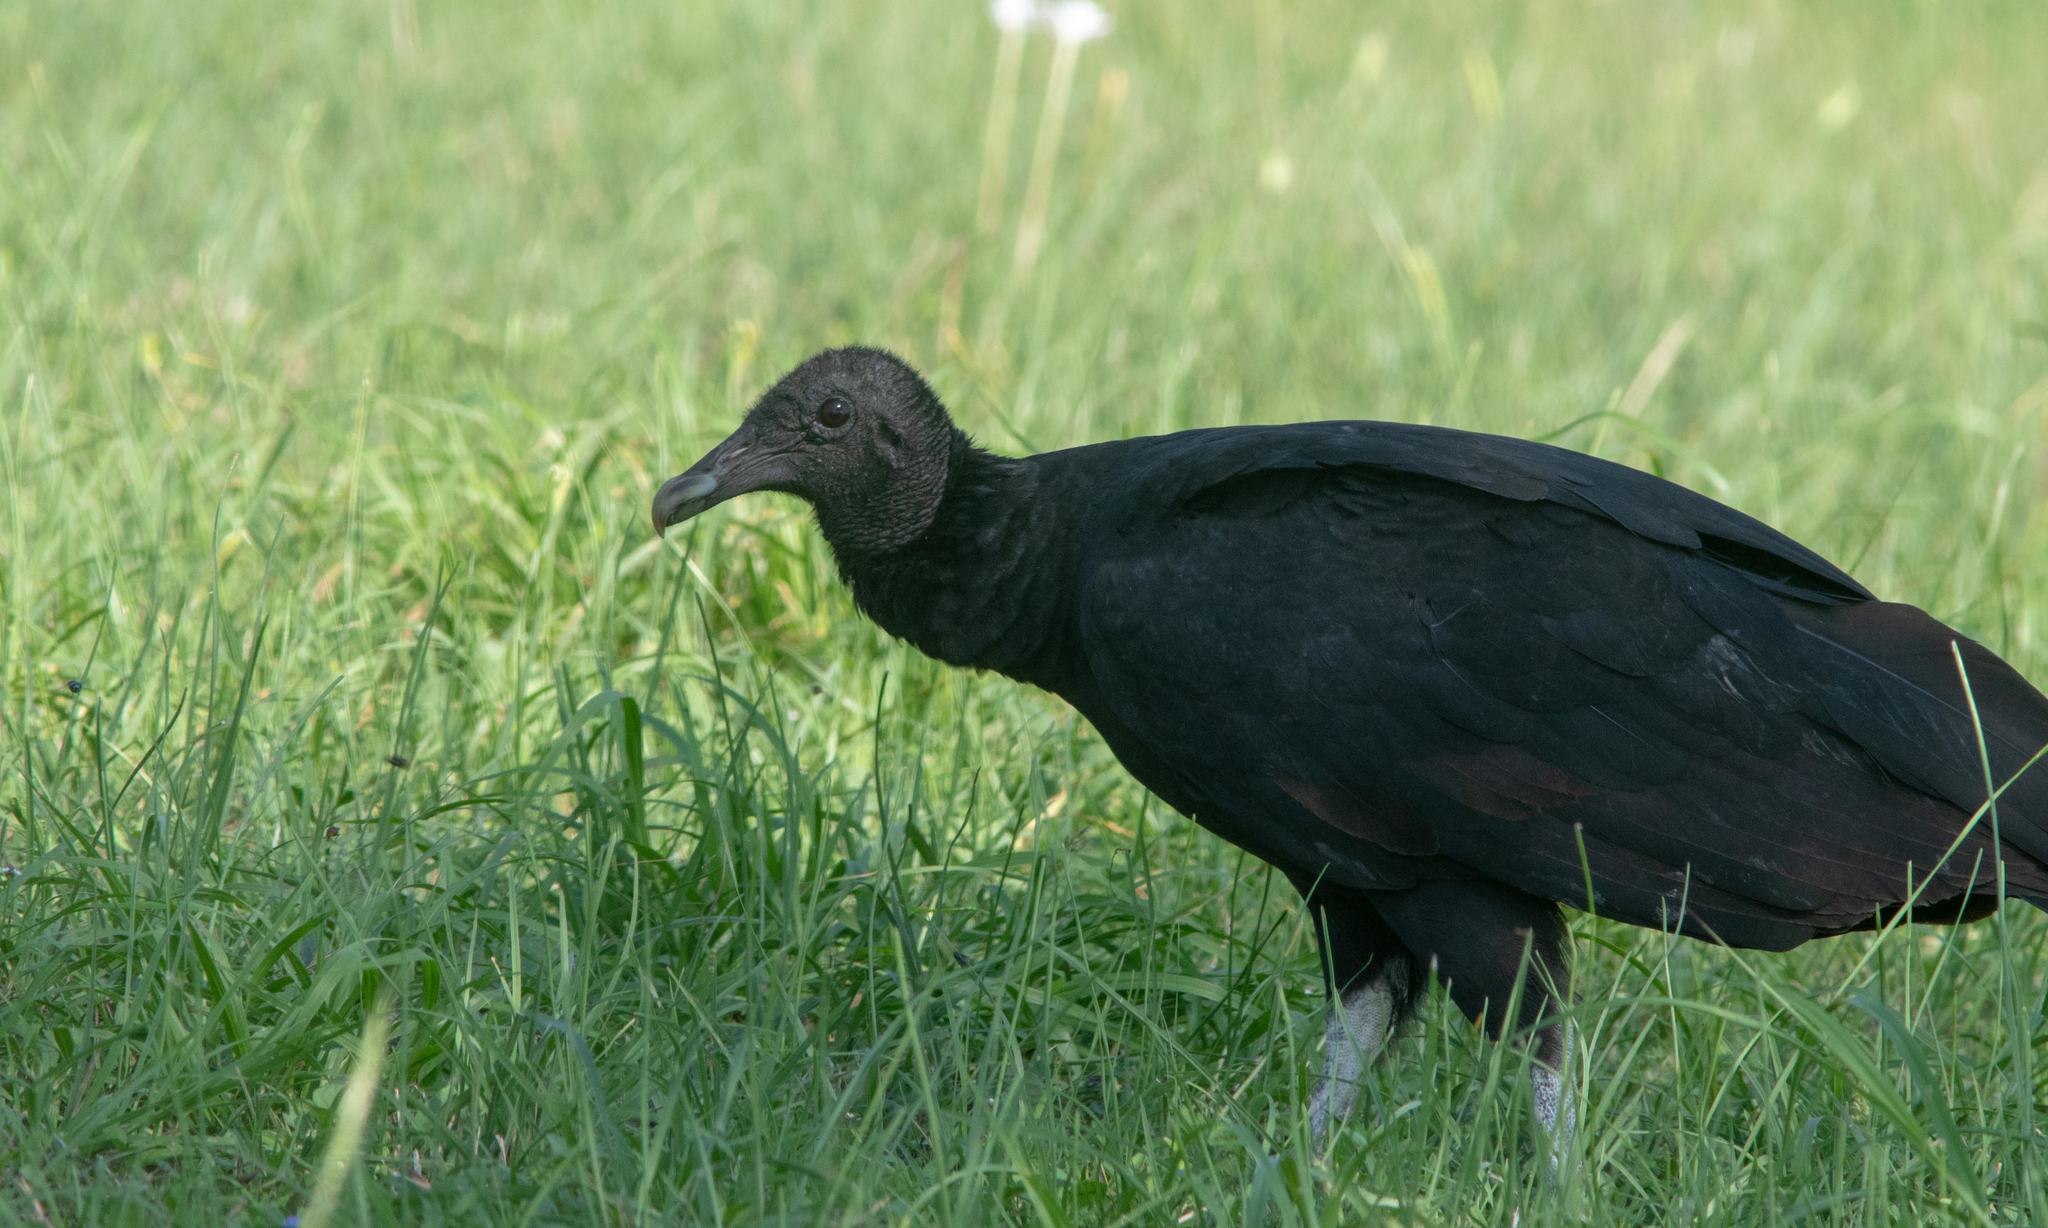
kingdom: Animalia
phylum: Chordata
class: Aves
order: Accipitriformes
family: Cathartidae
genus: Coragyps
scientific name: Coragyps atratus
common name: Black vulture
